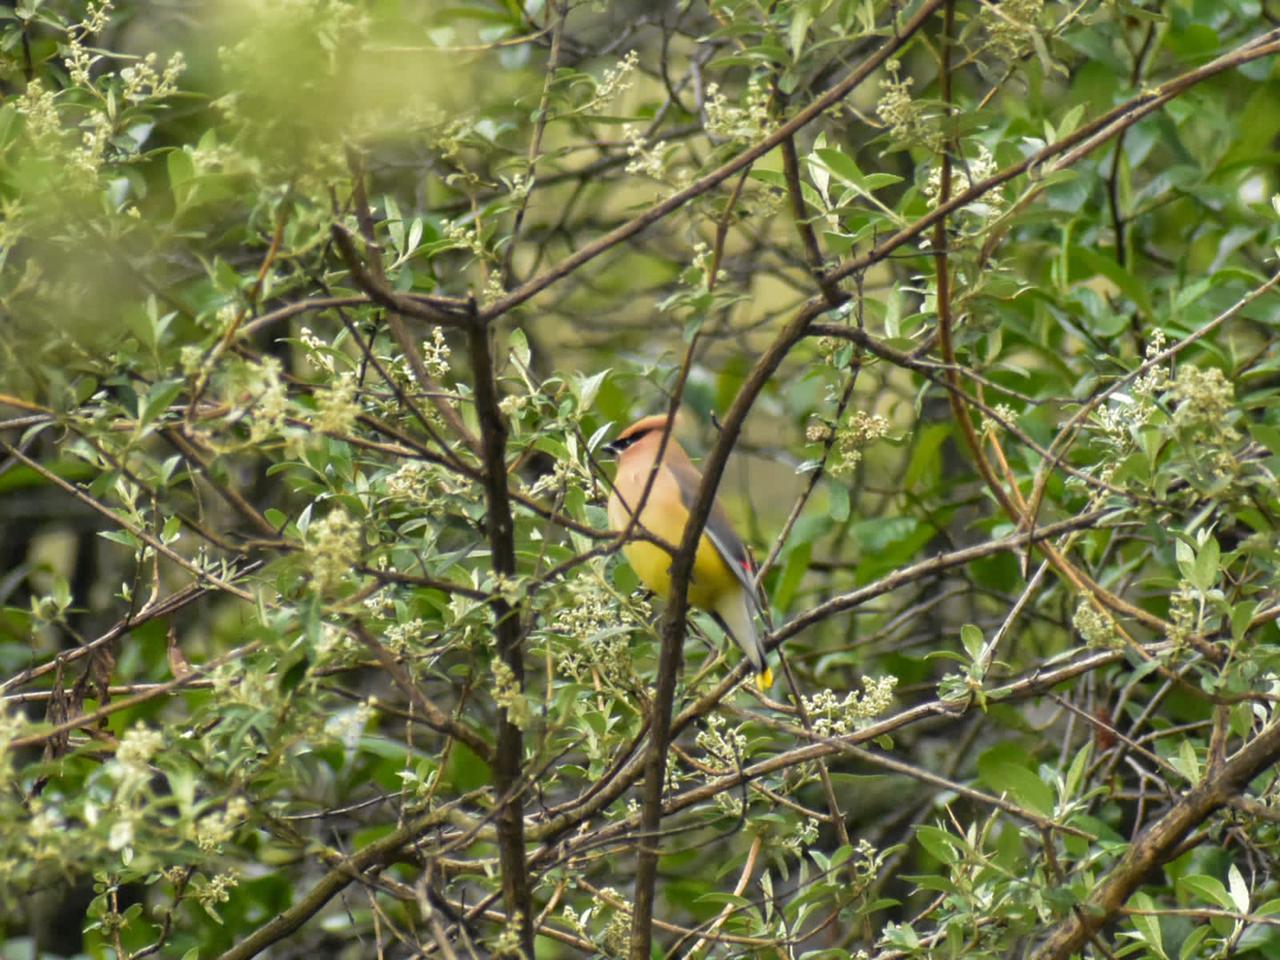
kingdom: Animalia
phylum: Chordata
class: Aves
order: Passeriformes
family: Bombycillidae
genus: Bombycilla
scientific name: Bombycilla cedrorum
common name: Cedar waxwing
